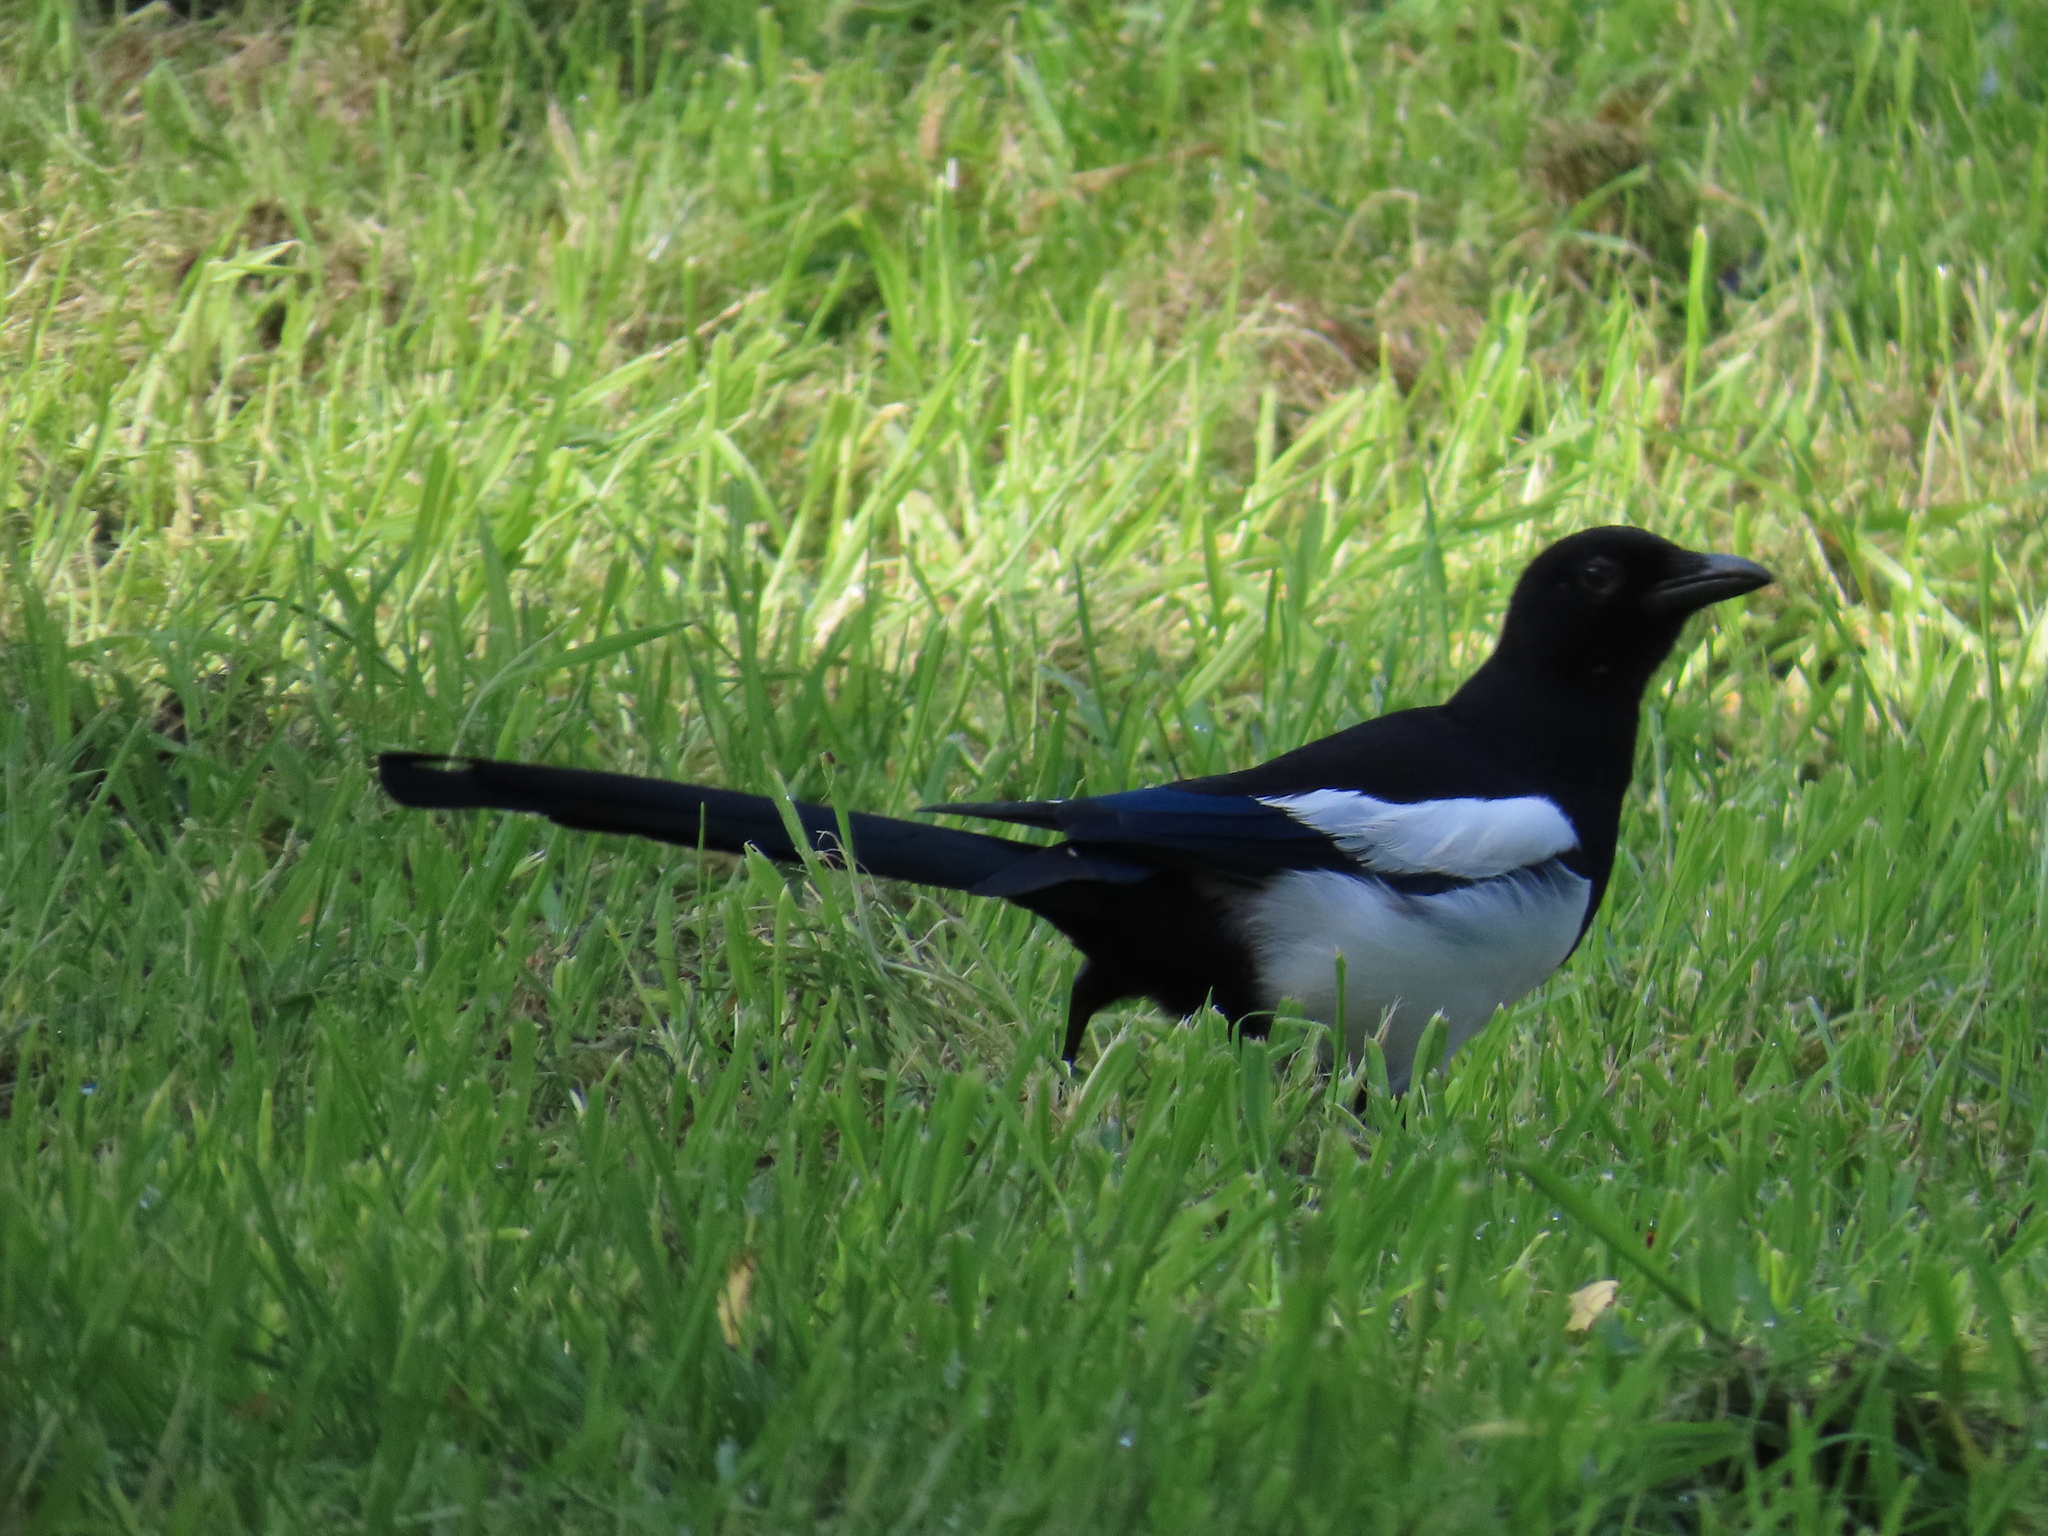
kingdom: Animalia
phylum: Chordata
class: Aves
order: Passeriformes
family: Corvidae
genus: Pica
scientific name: Pica pica
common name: Eurasian magpie
